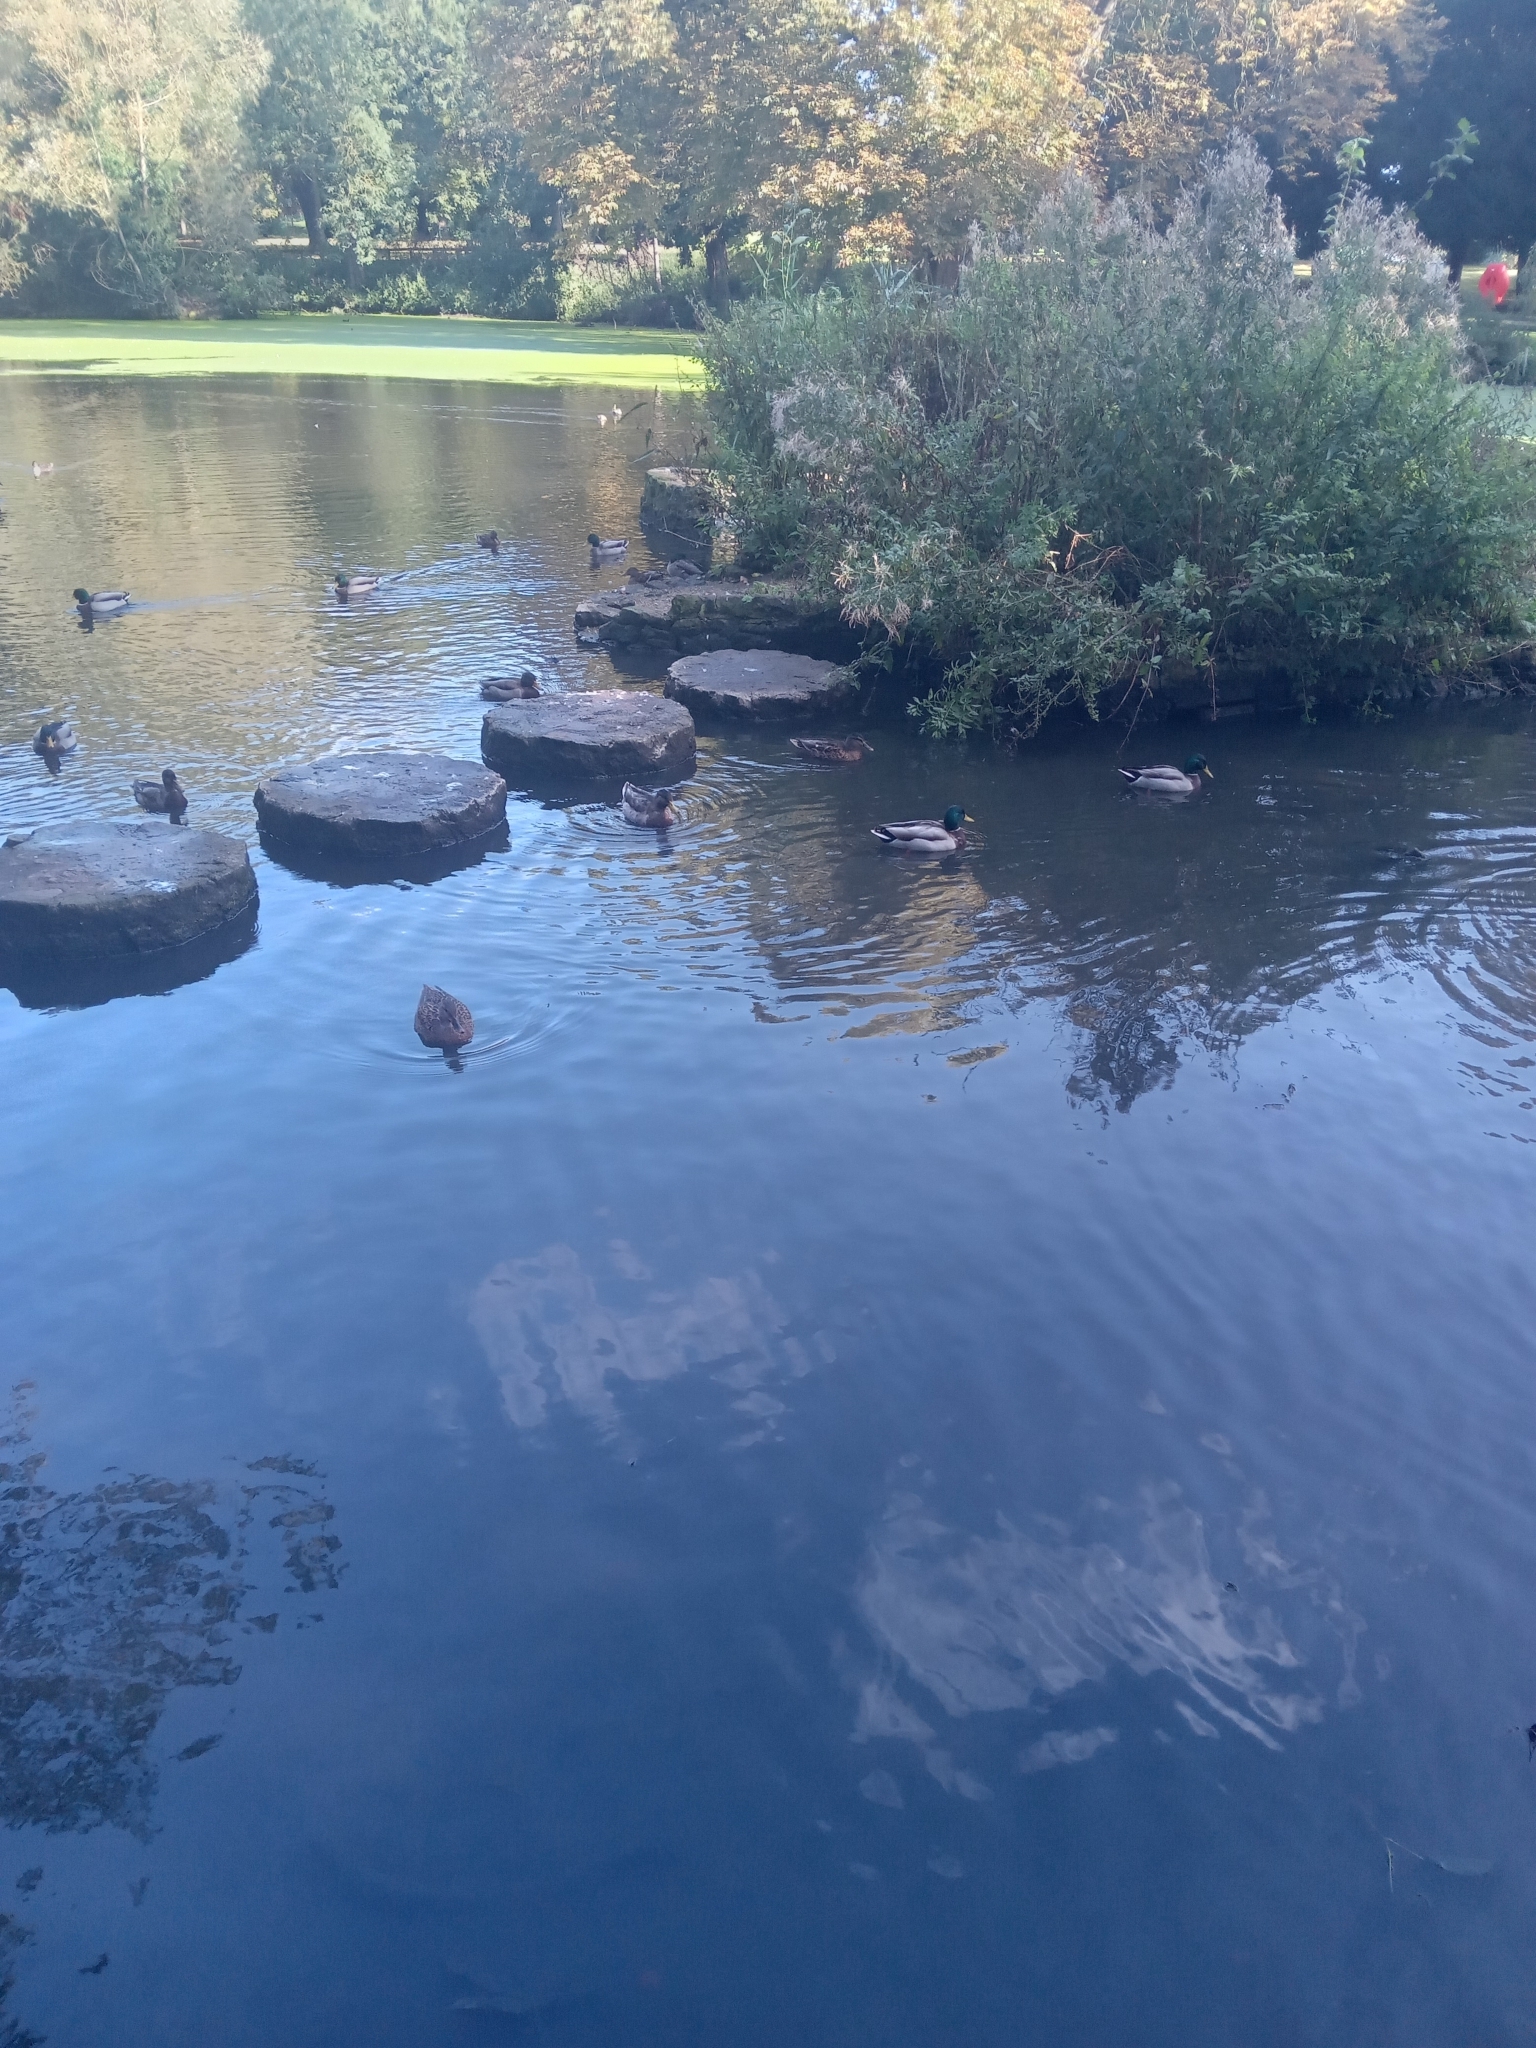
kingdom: Animalia
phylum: Chordata
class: Aves
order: Anseriformes
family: Anatidae
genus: Anas
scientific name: Anas platyrhynchos
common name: Mallard
